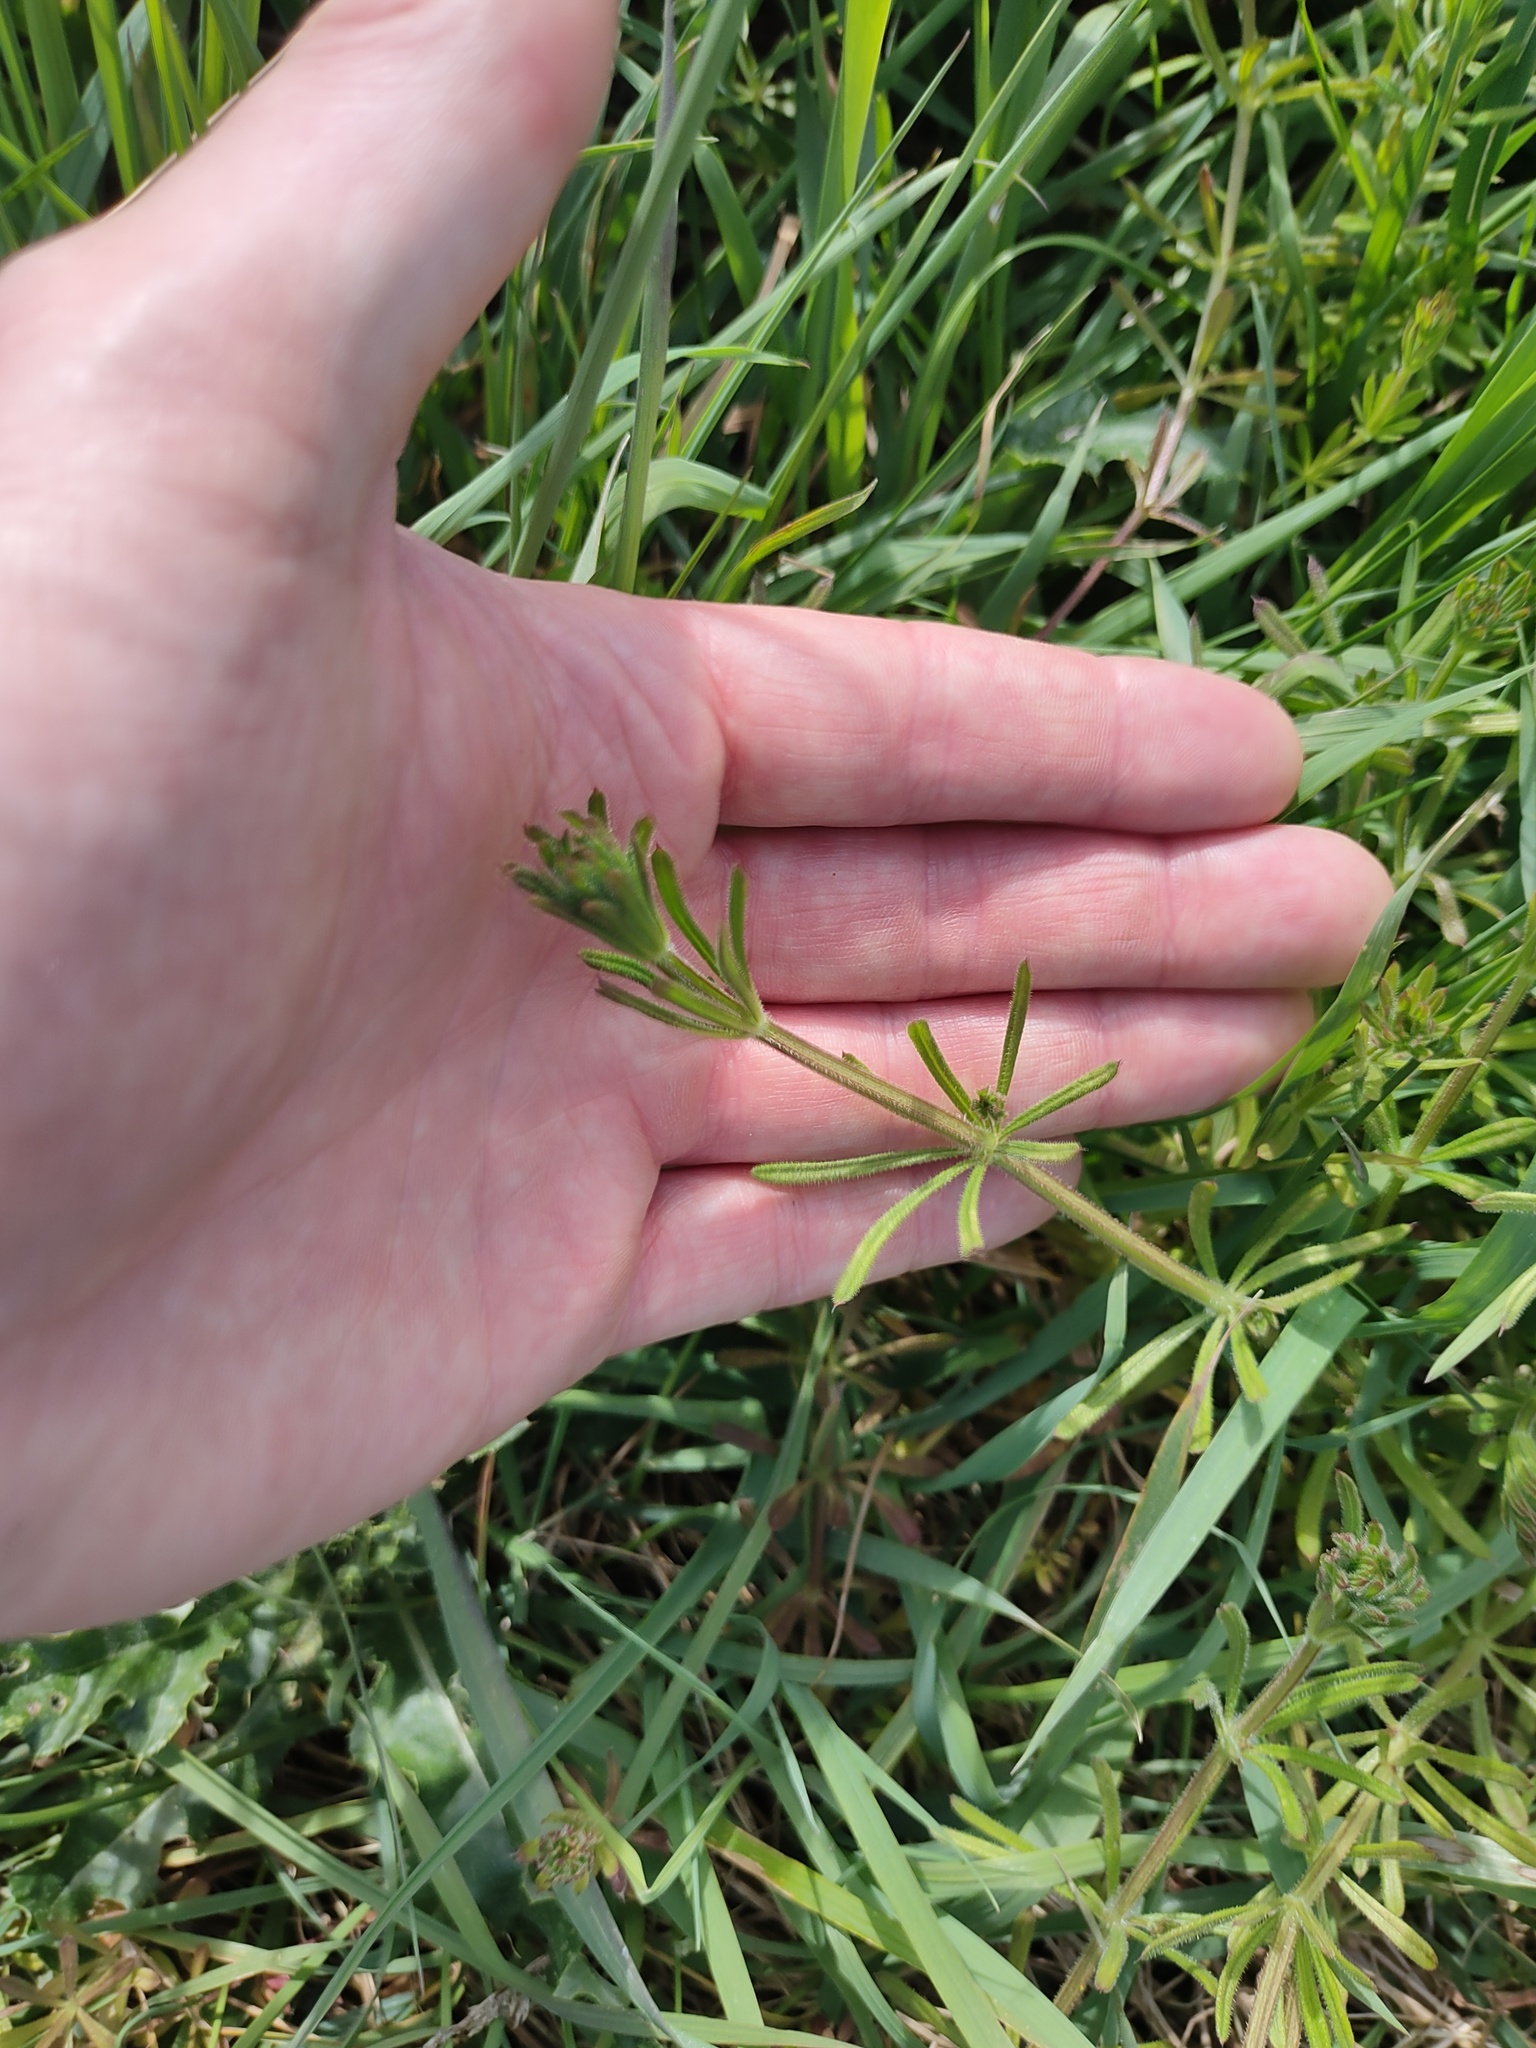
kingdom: Plantae
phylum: Tracheophyta
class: Magnoliopsida
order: Gentianales
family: Rubiaceae
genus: Galium
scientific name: Galium aparine
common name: Cleavers
